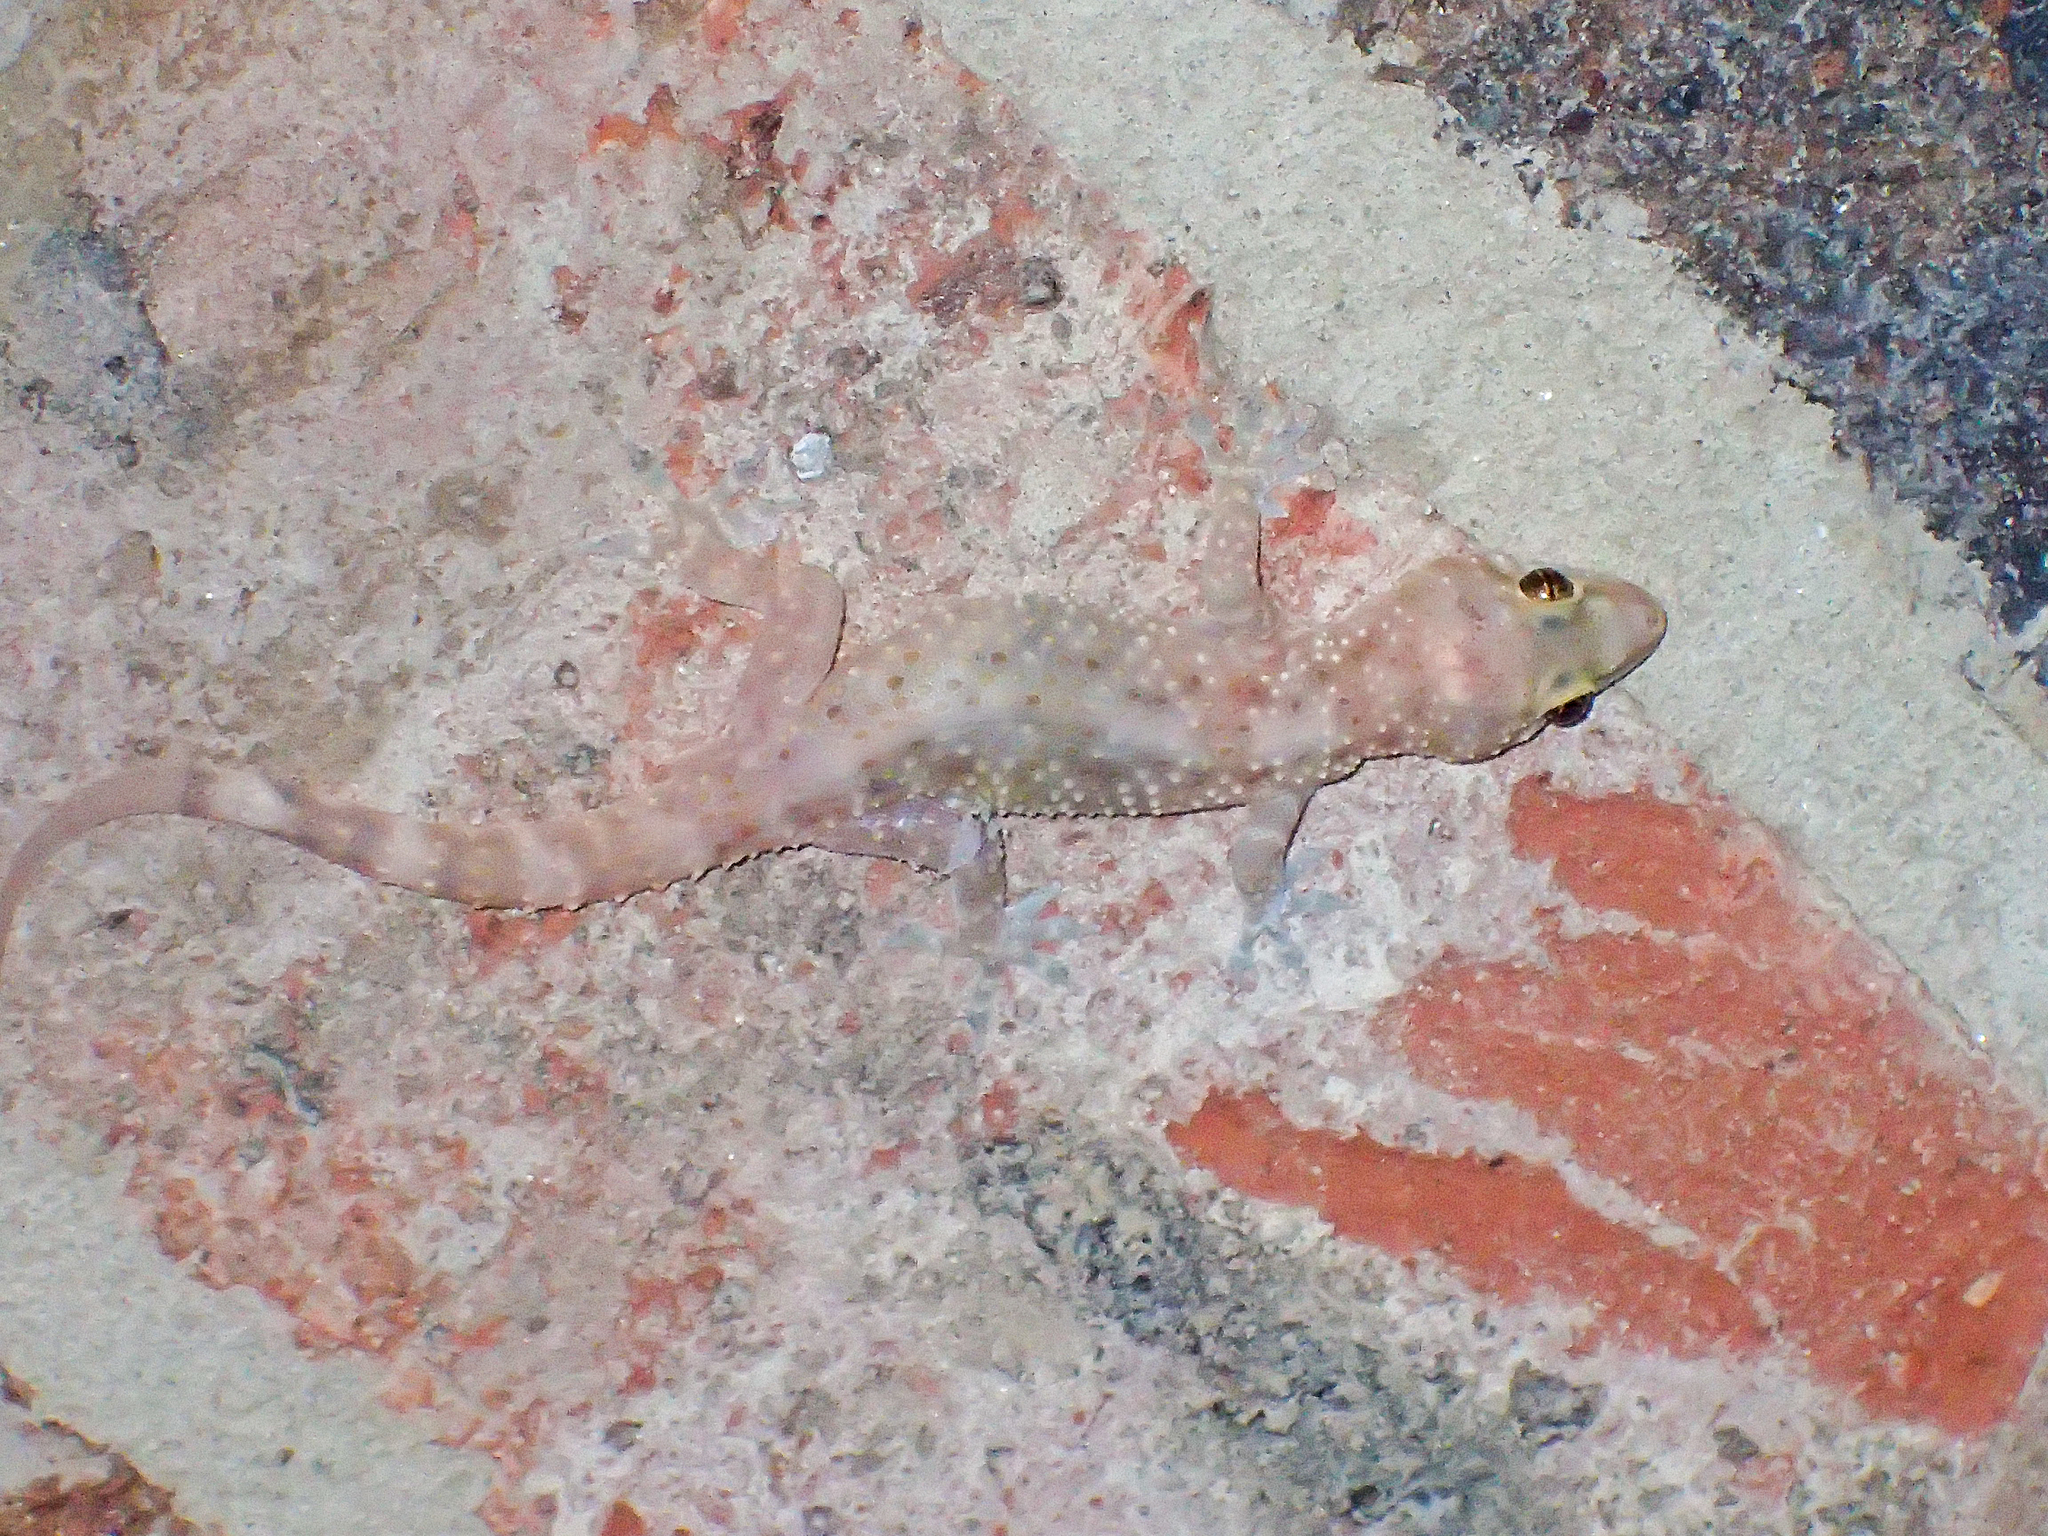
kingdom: Animalia
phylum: Chordata
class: Squamata
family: Gekkonidae
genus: Hemidactylus
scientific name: Hemidactylus turcicus
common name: Turkish gecko
